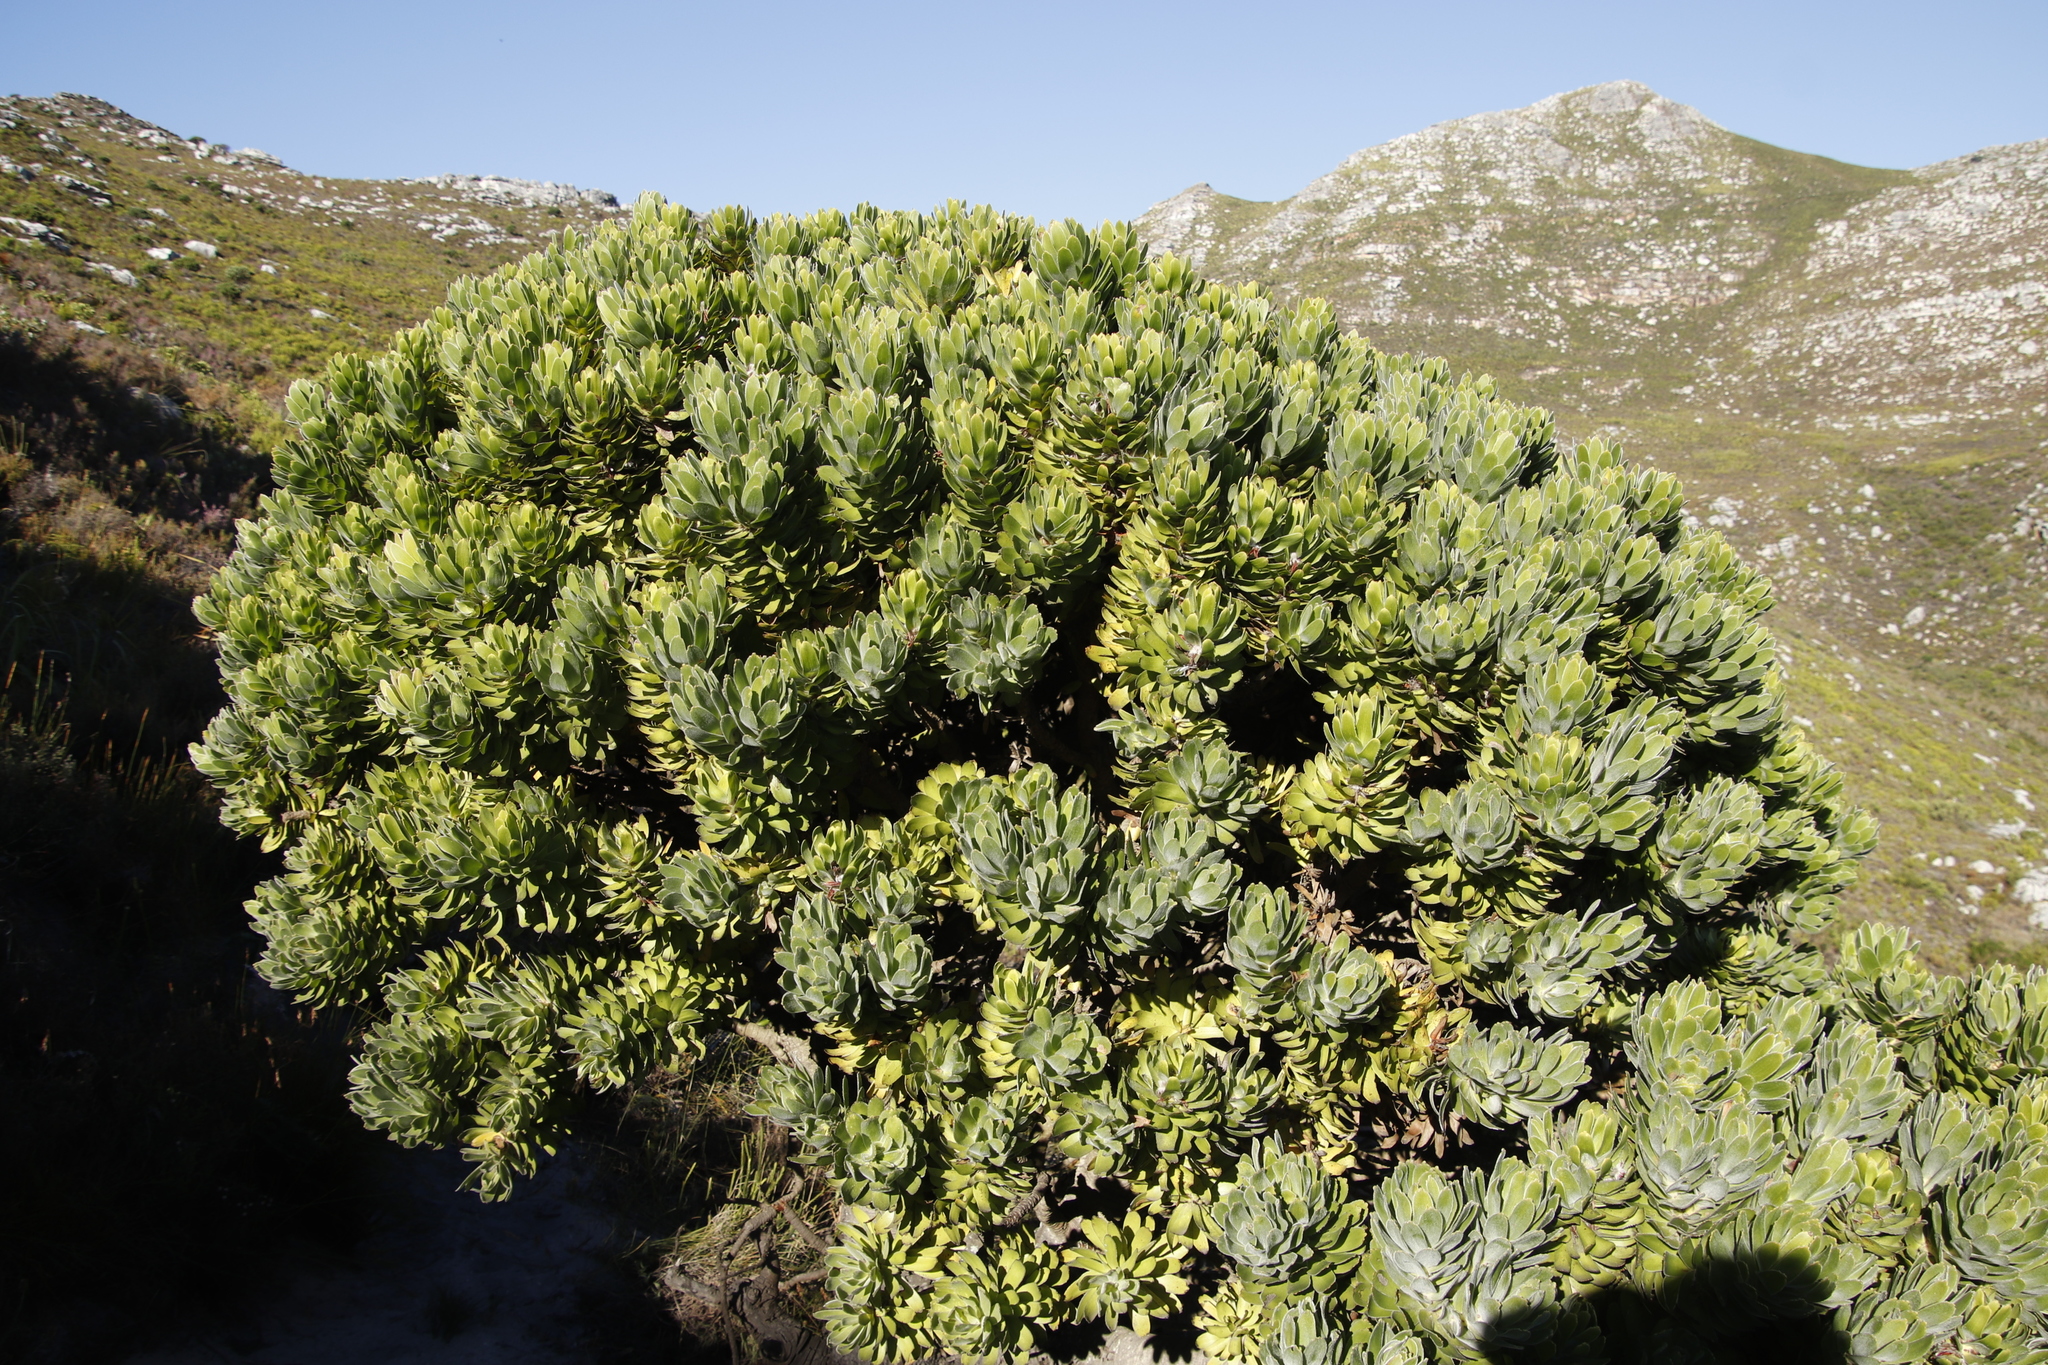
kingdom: Plantae
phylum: Tracheophyta
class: Magnoliopsida
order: Proteales
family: Proteaceae
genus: Mimetes
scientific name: Mimetes fimbriifolius
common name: Fringed bottlebrush
